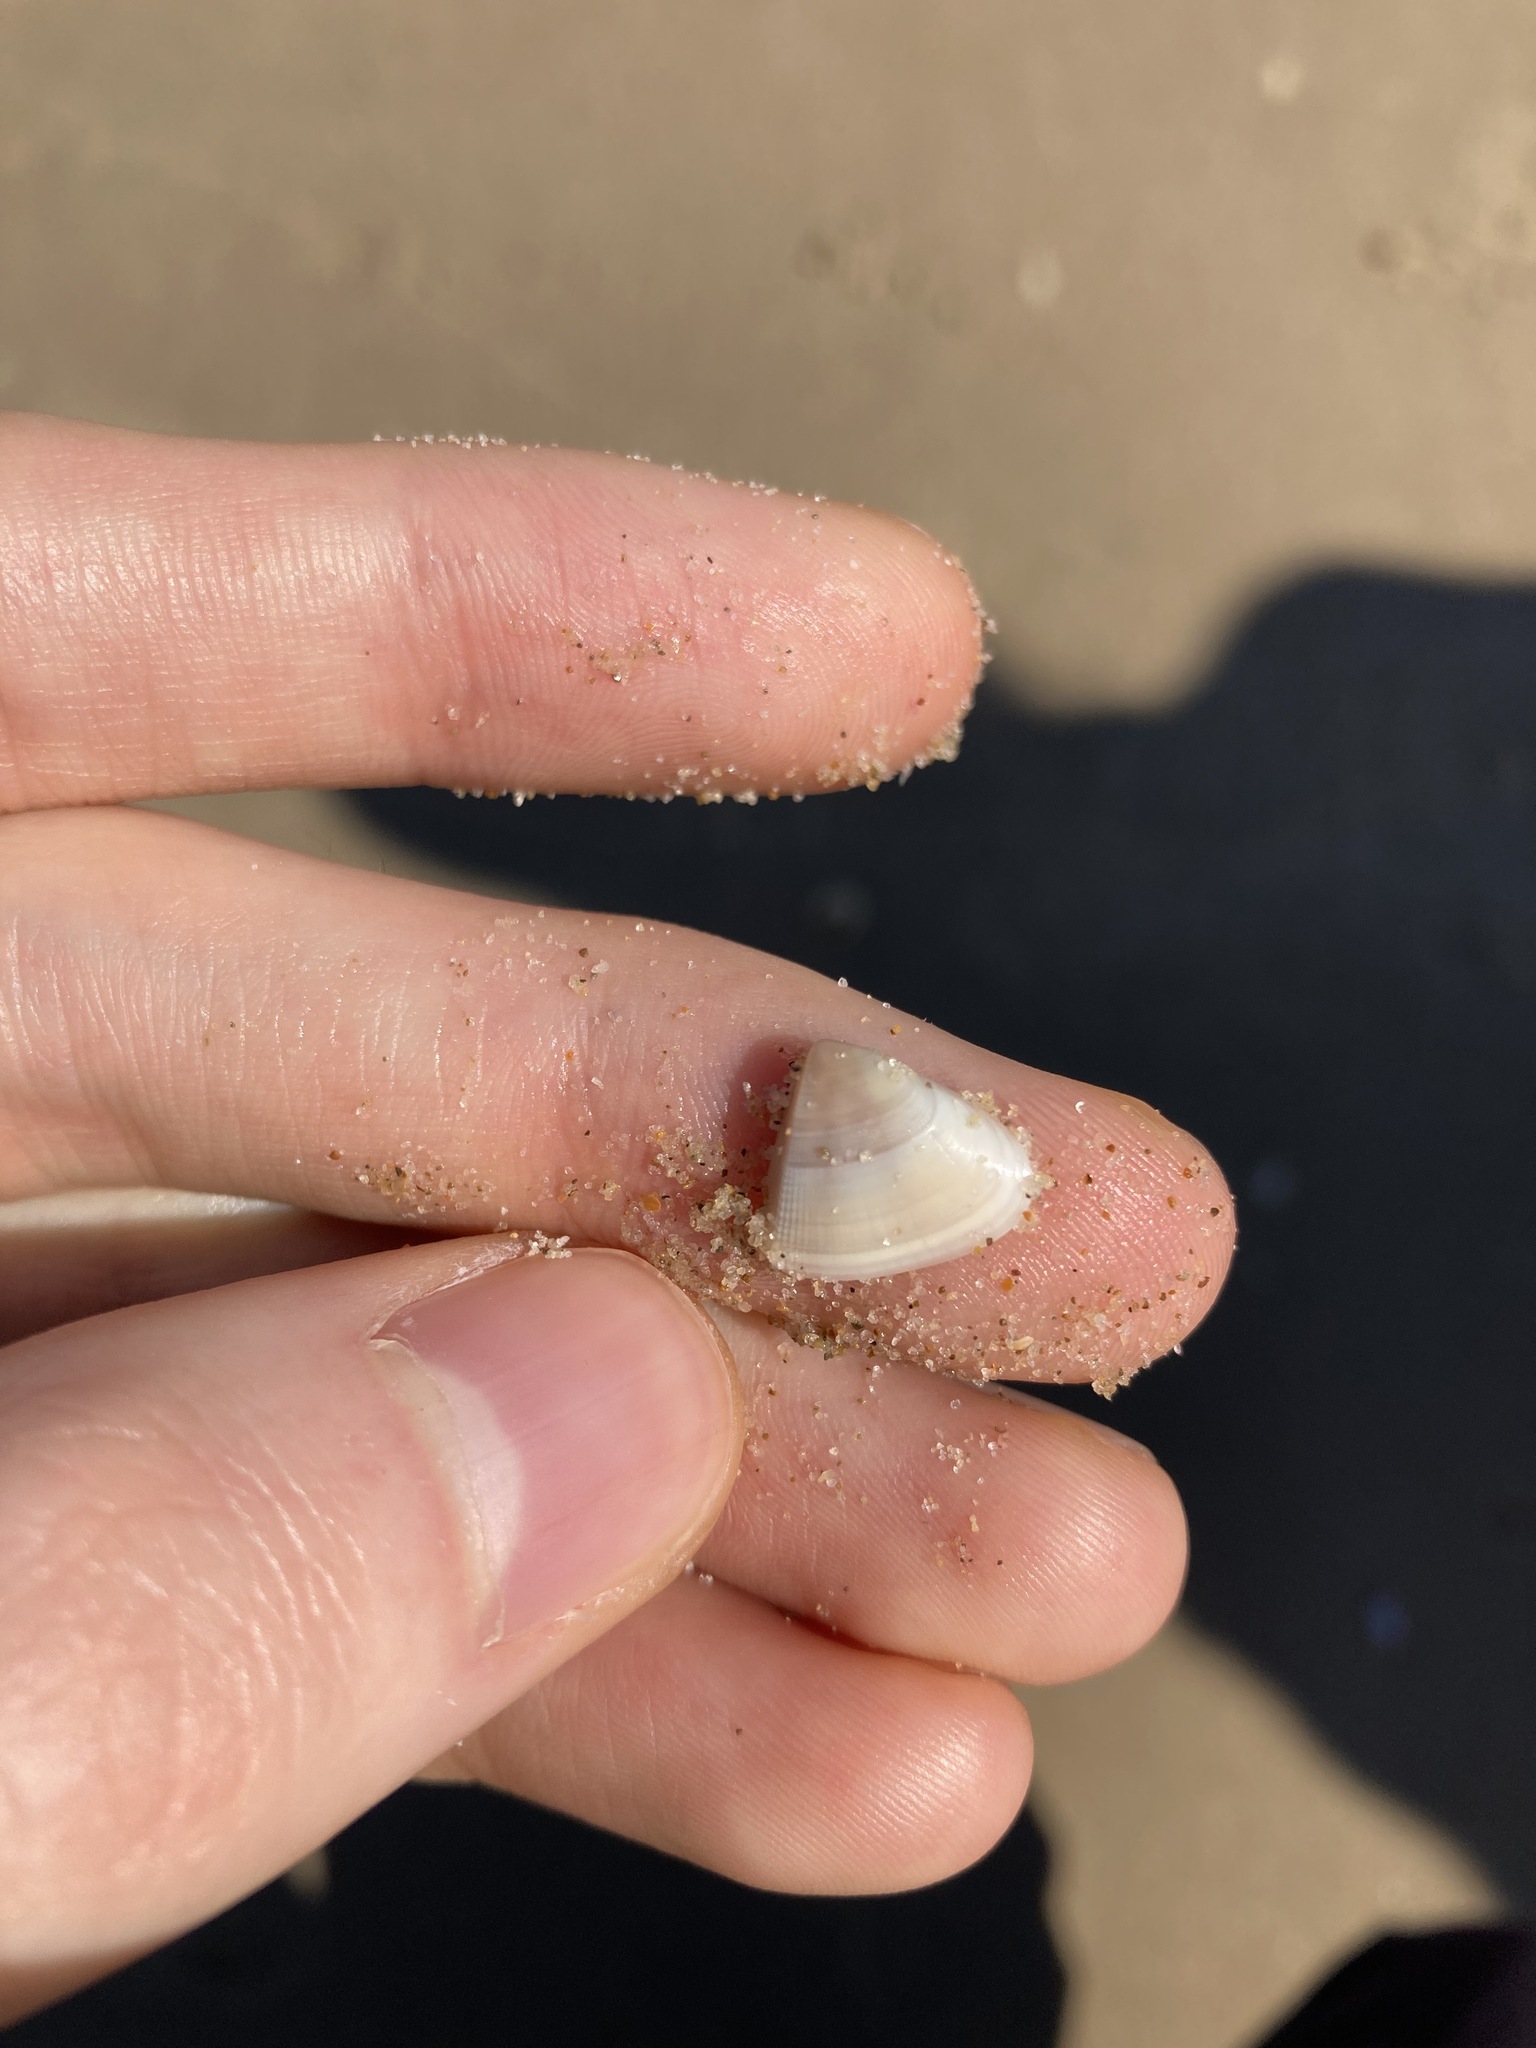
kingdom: Animalia
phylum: Mollusca
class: Bivalvia
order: Cardiida
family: Donacidae
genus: Donax
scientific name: Donax brazieri
